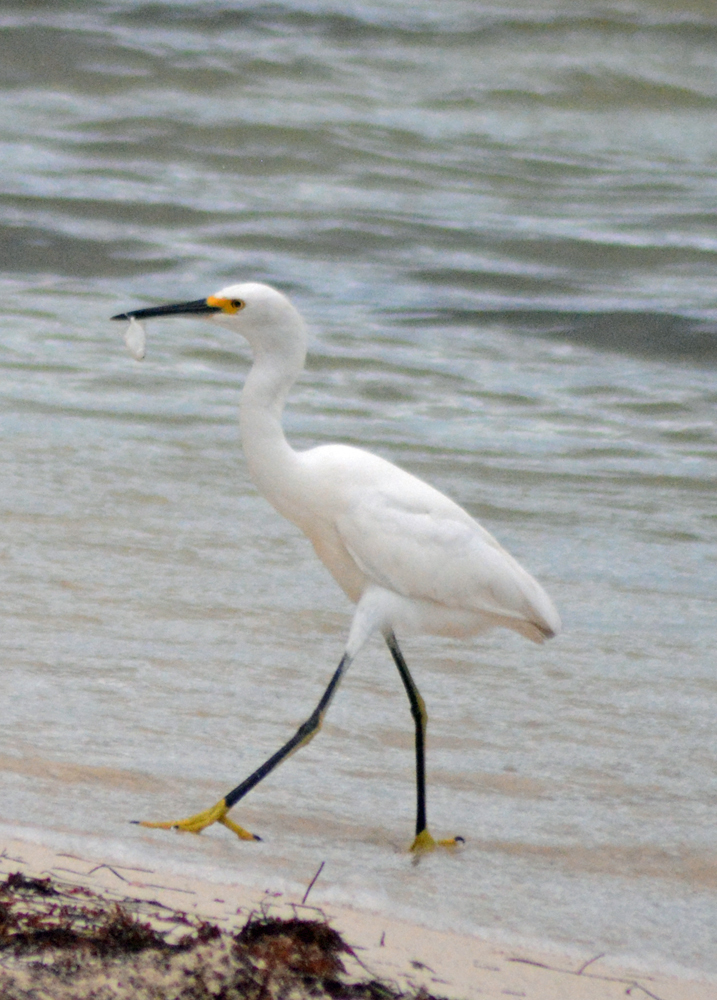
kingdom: Animalia
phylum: Chordata
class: Aves
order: Pelecaniformes
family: Ardeidae
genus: Egretta
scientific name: Egretta thula
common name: Snowy egret
